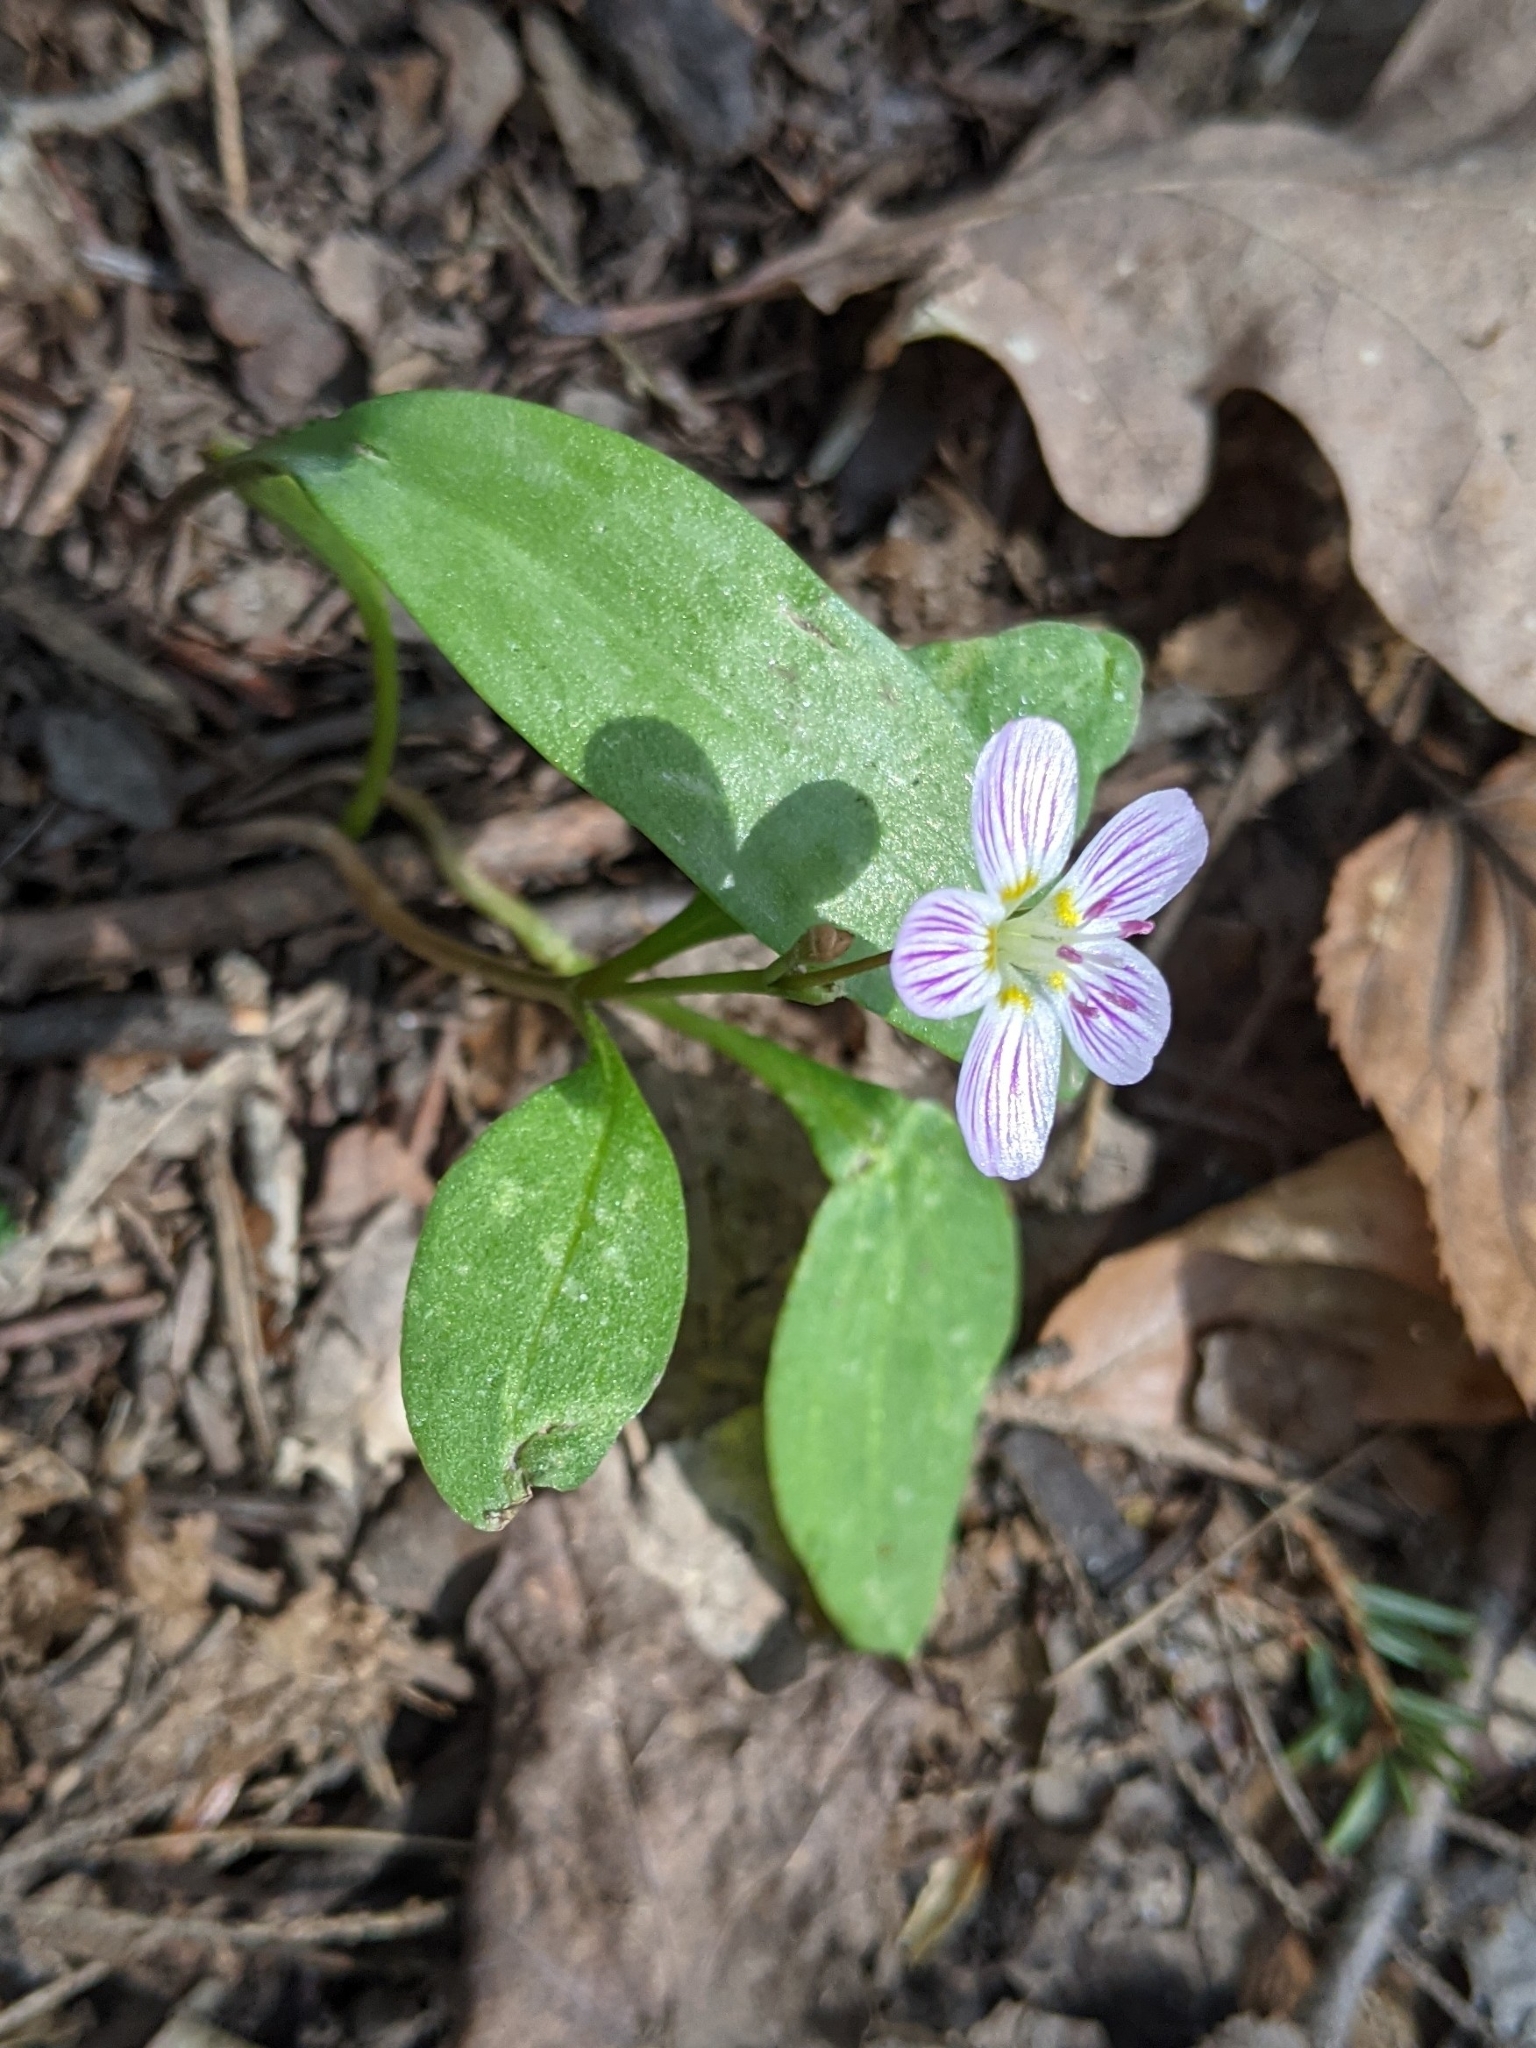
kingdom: Plantae
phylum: Tracheophyta
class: Magnoliopsida
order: Caryophyllales
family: Montiaceae
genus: Claytonia
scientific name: Claytonia caroliniana
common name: Carolina spring beauty
